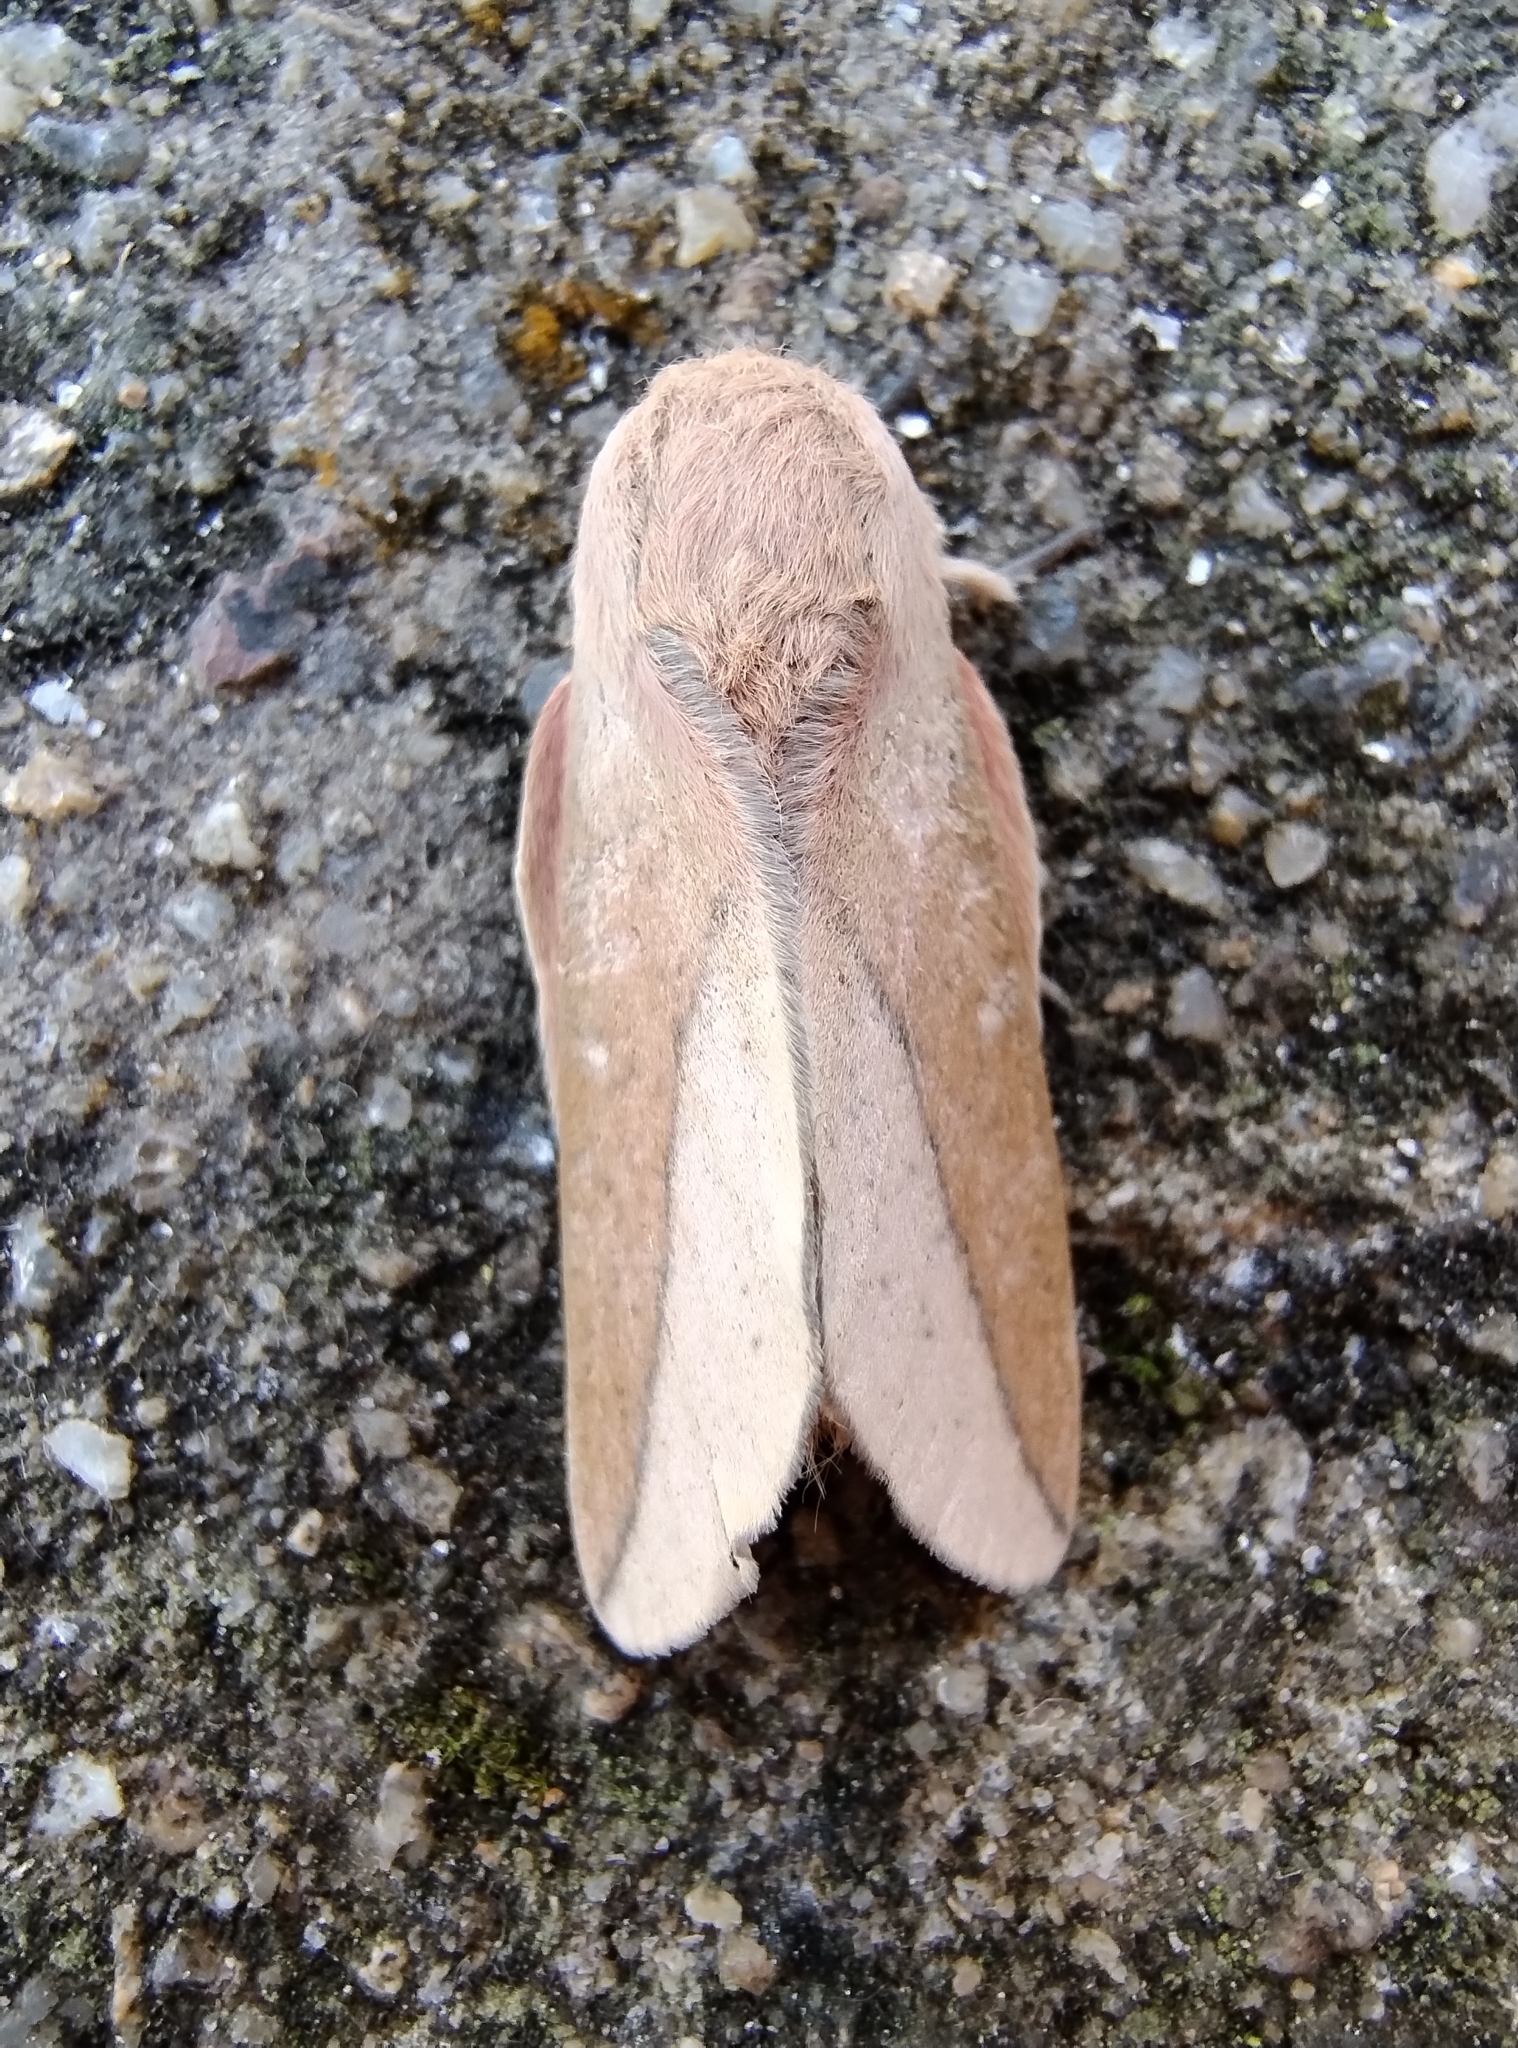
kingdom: Animalia
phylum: Arthropoda
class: Insecta
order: Lepidoptera
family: Saturniidae
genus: Scolesa
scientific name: Scolesa totoma
